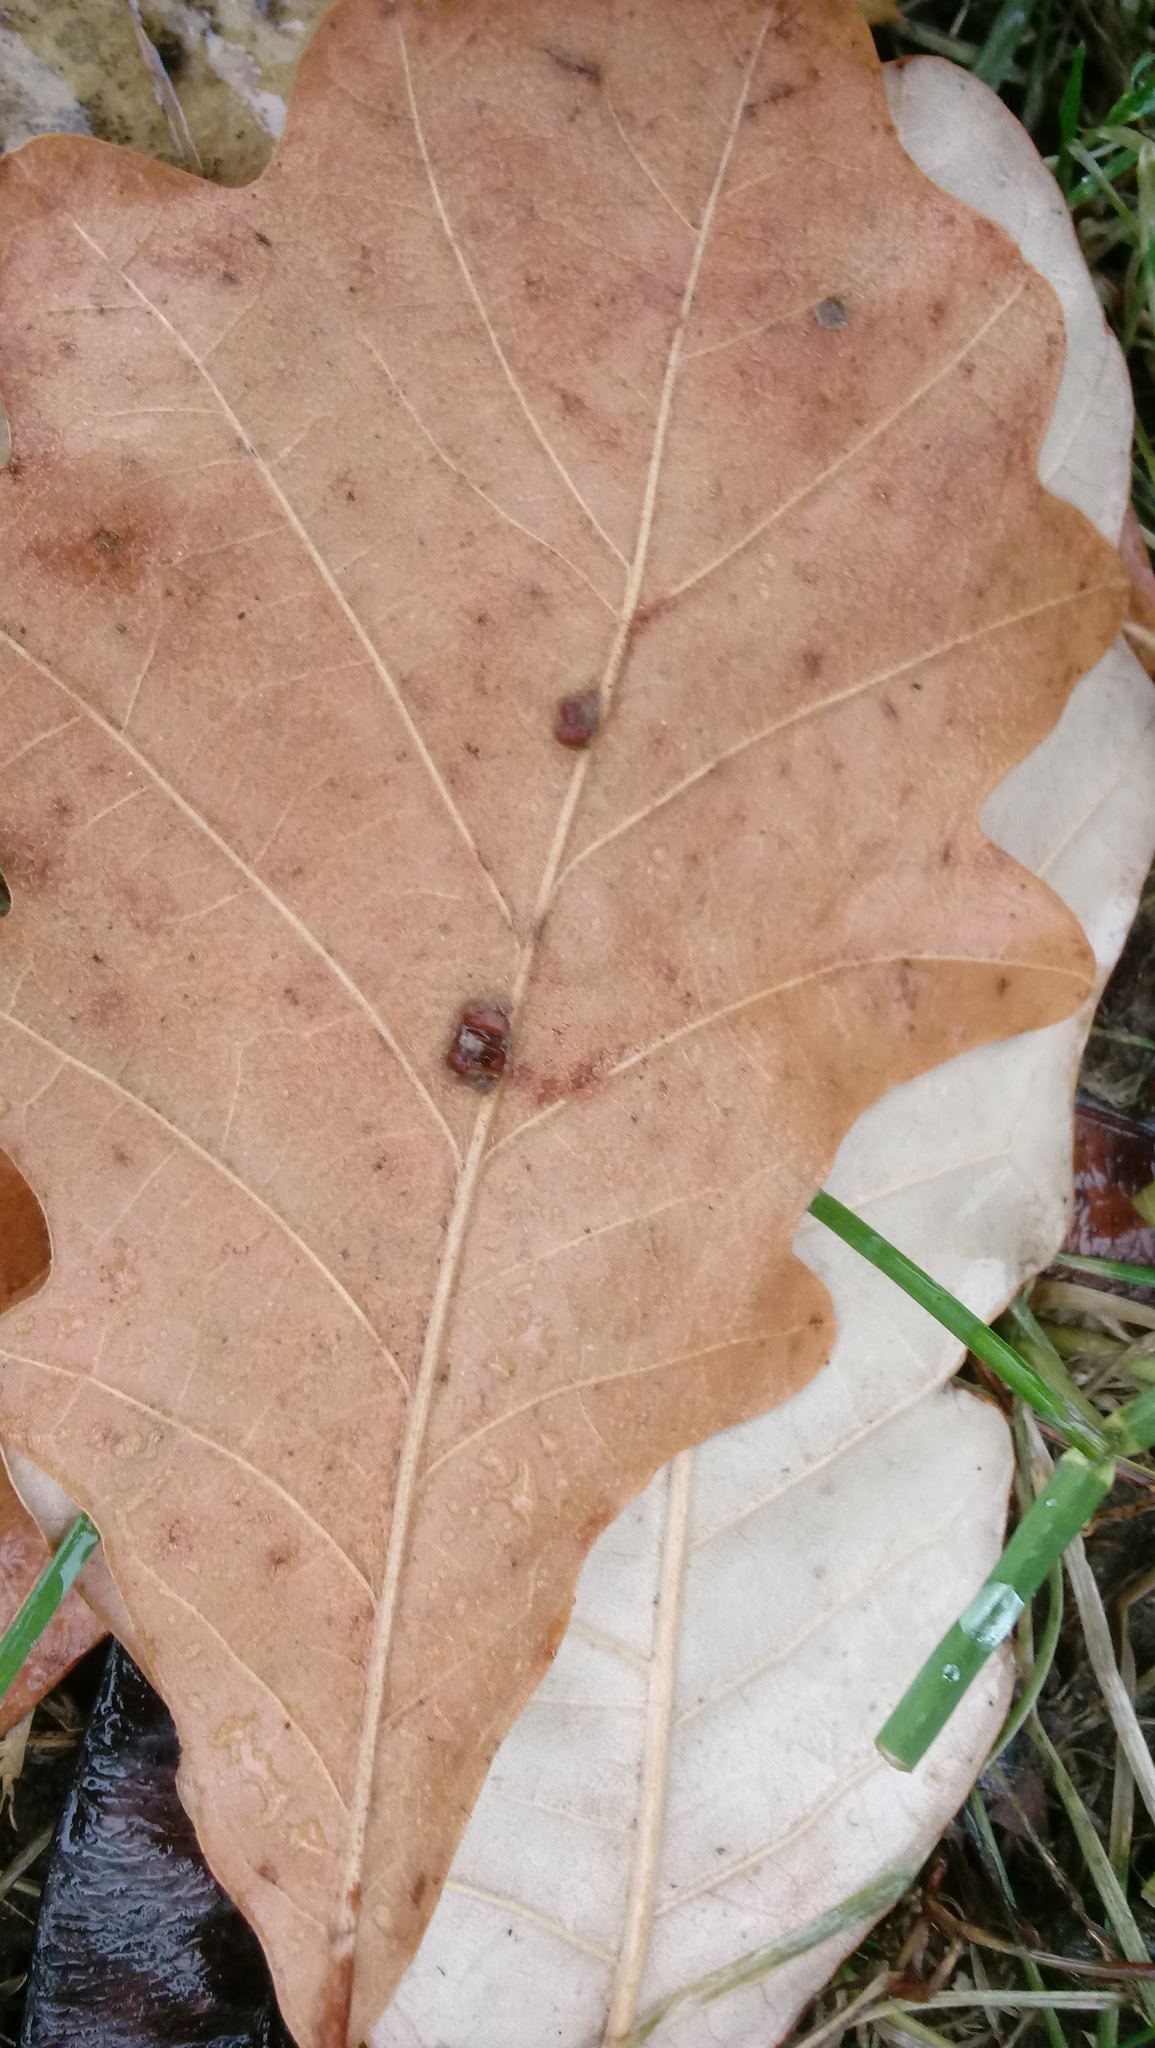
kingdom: Animalia
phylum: Arthropoda
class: Insecta
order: Hymenoptera
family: Cynipidae
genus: Andricus
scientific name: Andricus Druon ignotum
